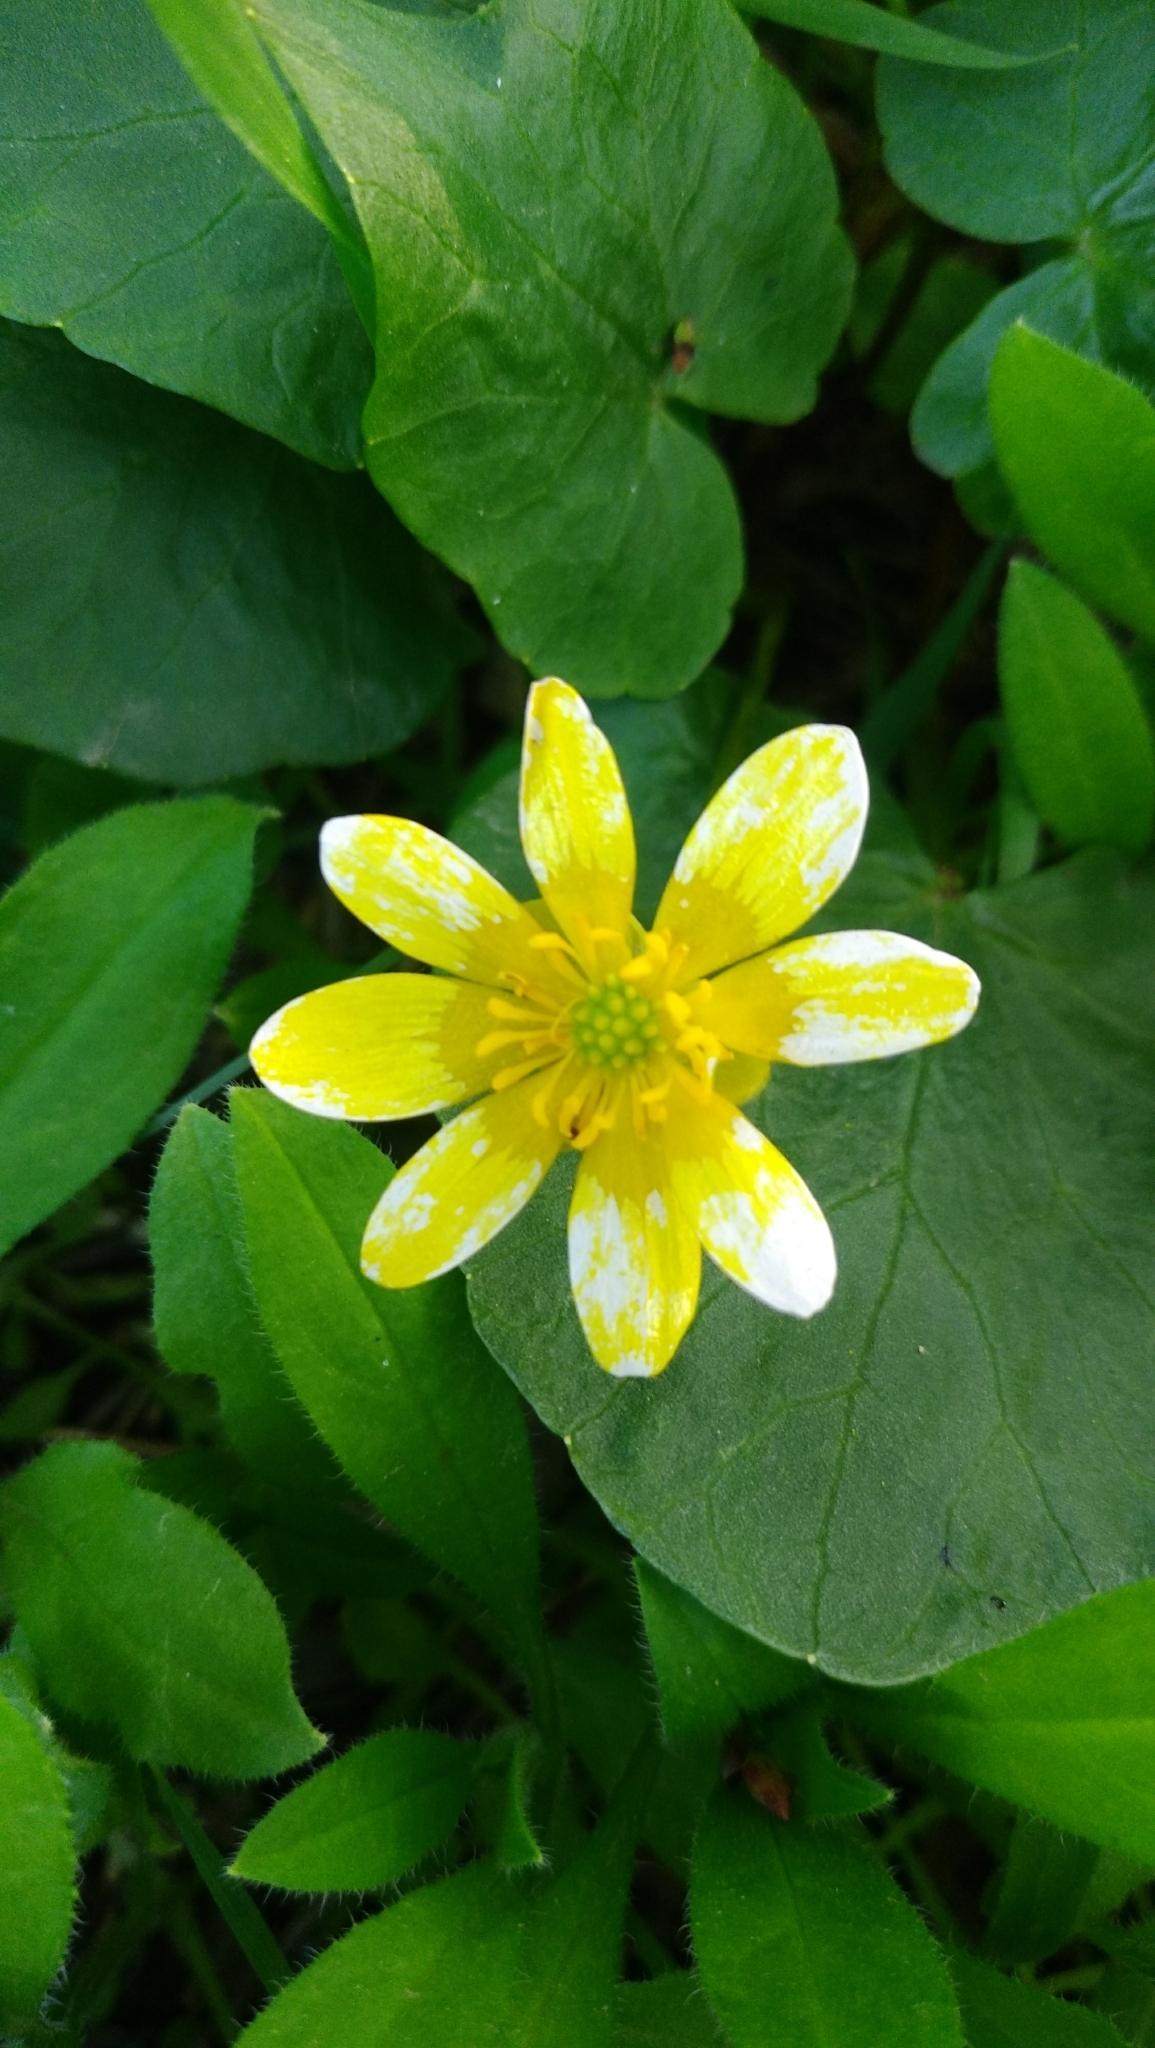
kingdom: Plantae
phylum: Tracheophyta
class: Magnoliopsida
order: Ranunculales
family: Ranunculaceae
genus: Ficaria
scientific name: Ficaria verna
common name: Lesser celandine
